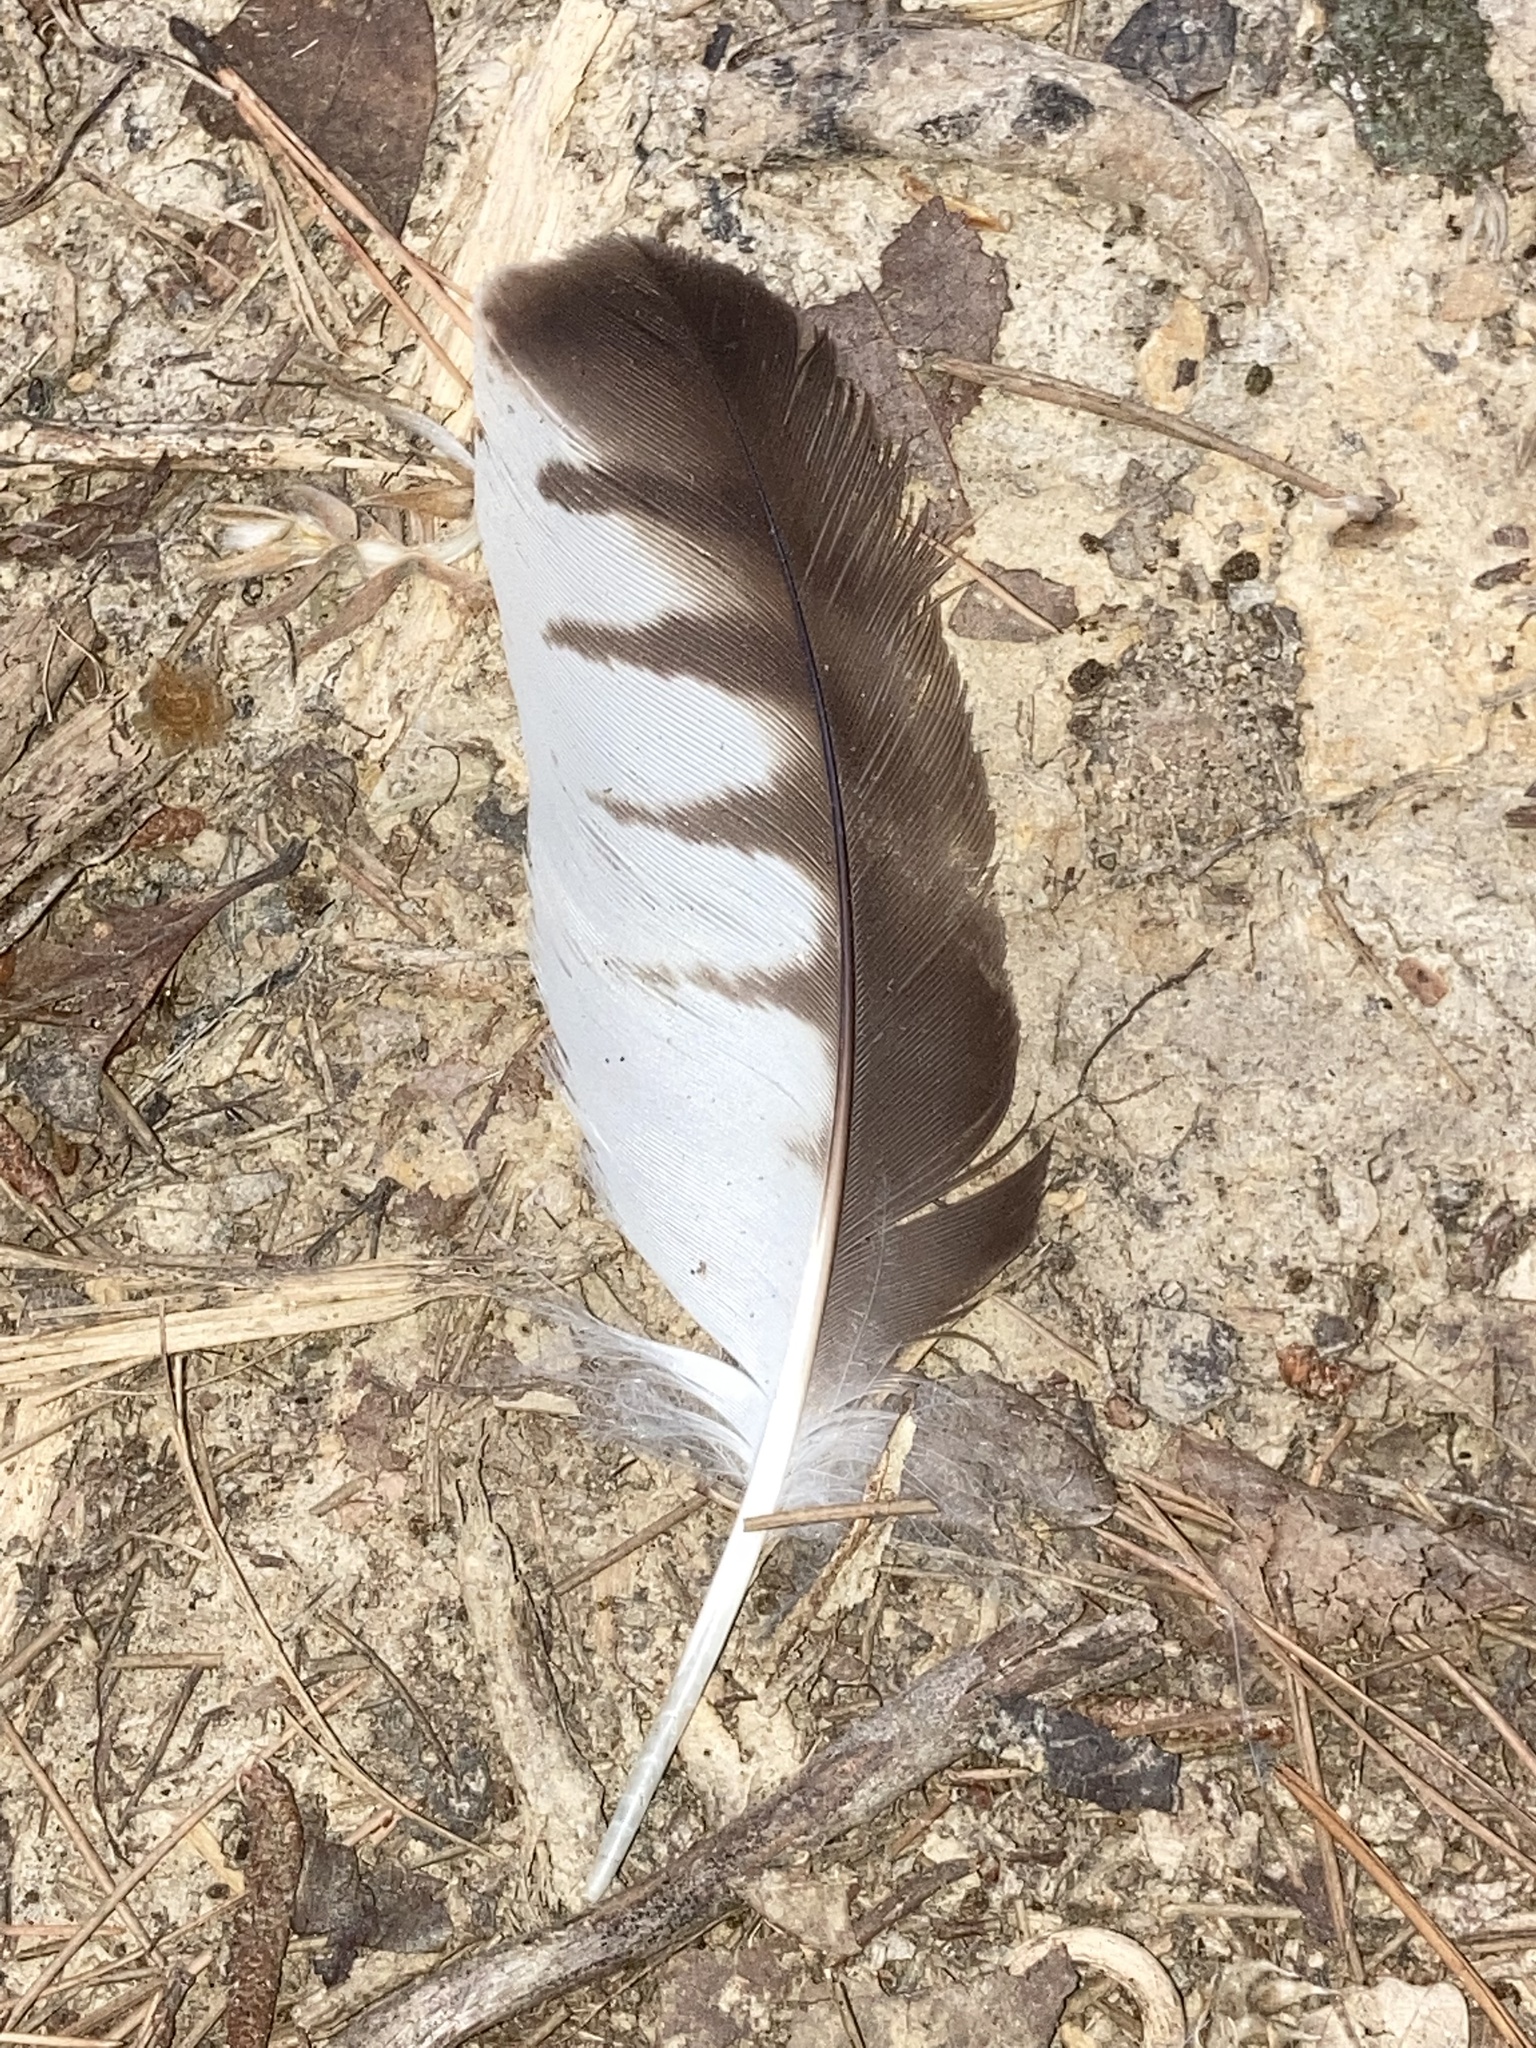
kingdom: Animalia
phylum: Chordata
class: Aves
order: Accipitriformes
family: Accipitridae
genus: Buteo
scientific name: Buteo platypterus
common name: Broad-winged hawk
